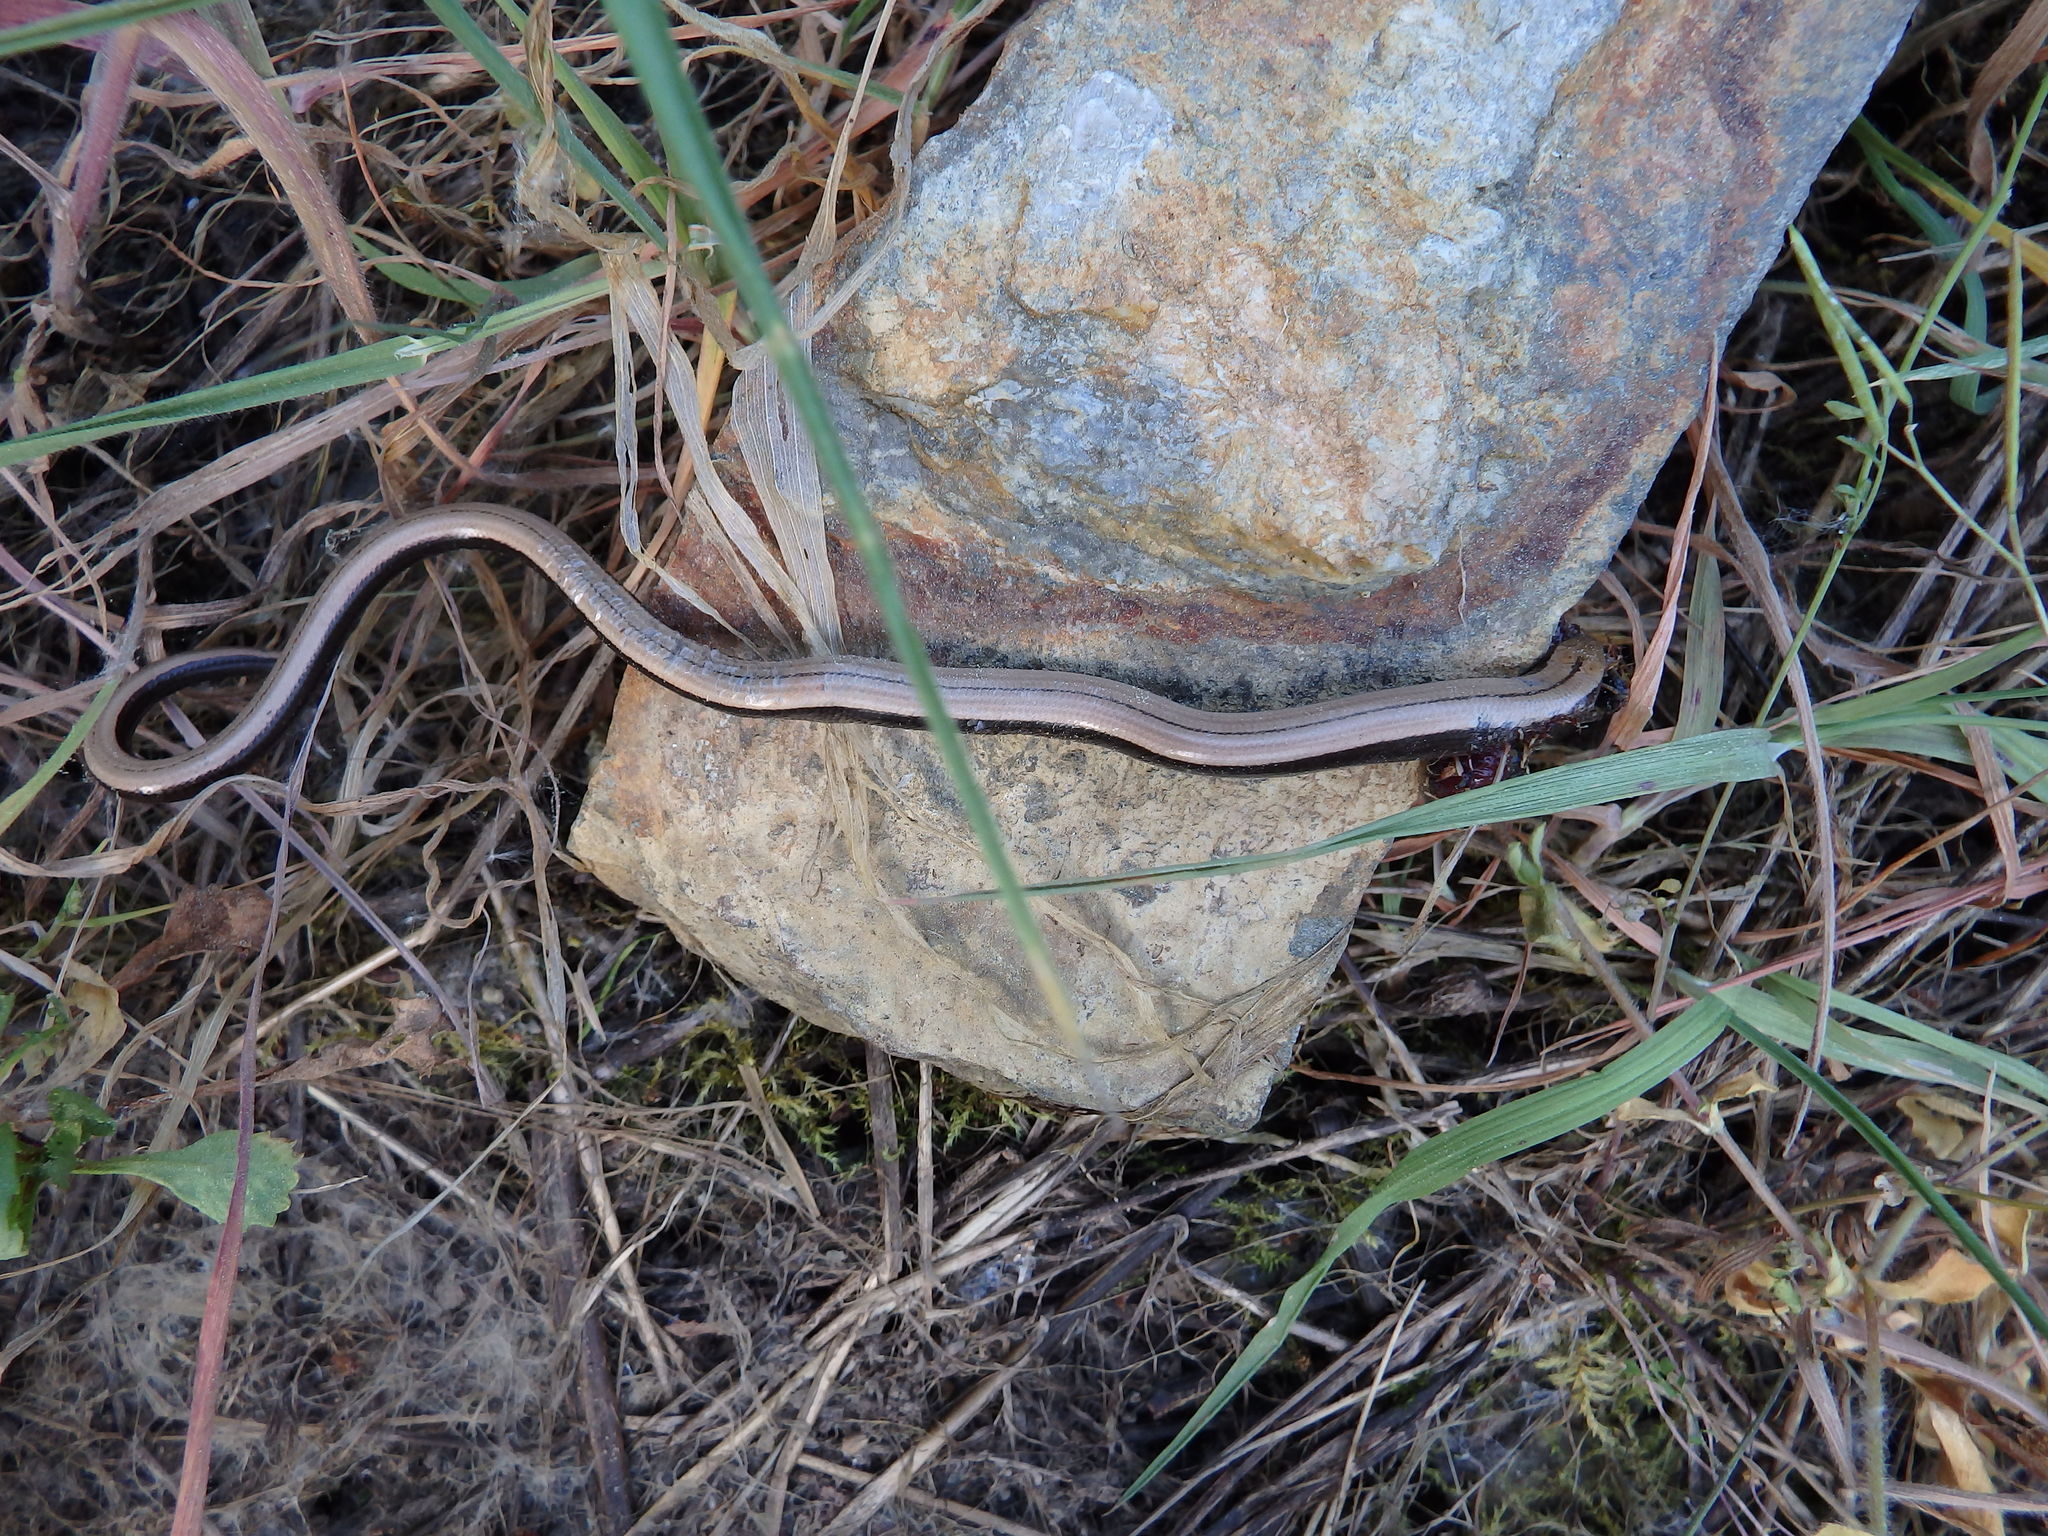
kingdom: Animalia
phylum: Chordata
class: Squamata
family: Anguidae
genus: Anguis
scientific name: Anguis fragilis
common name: Slow worm
